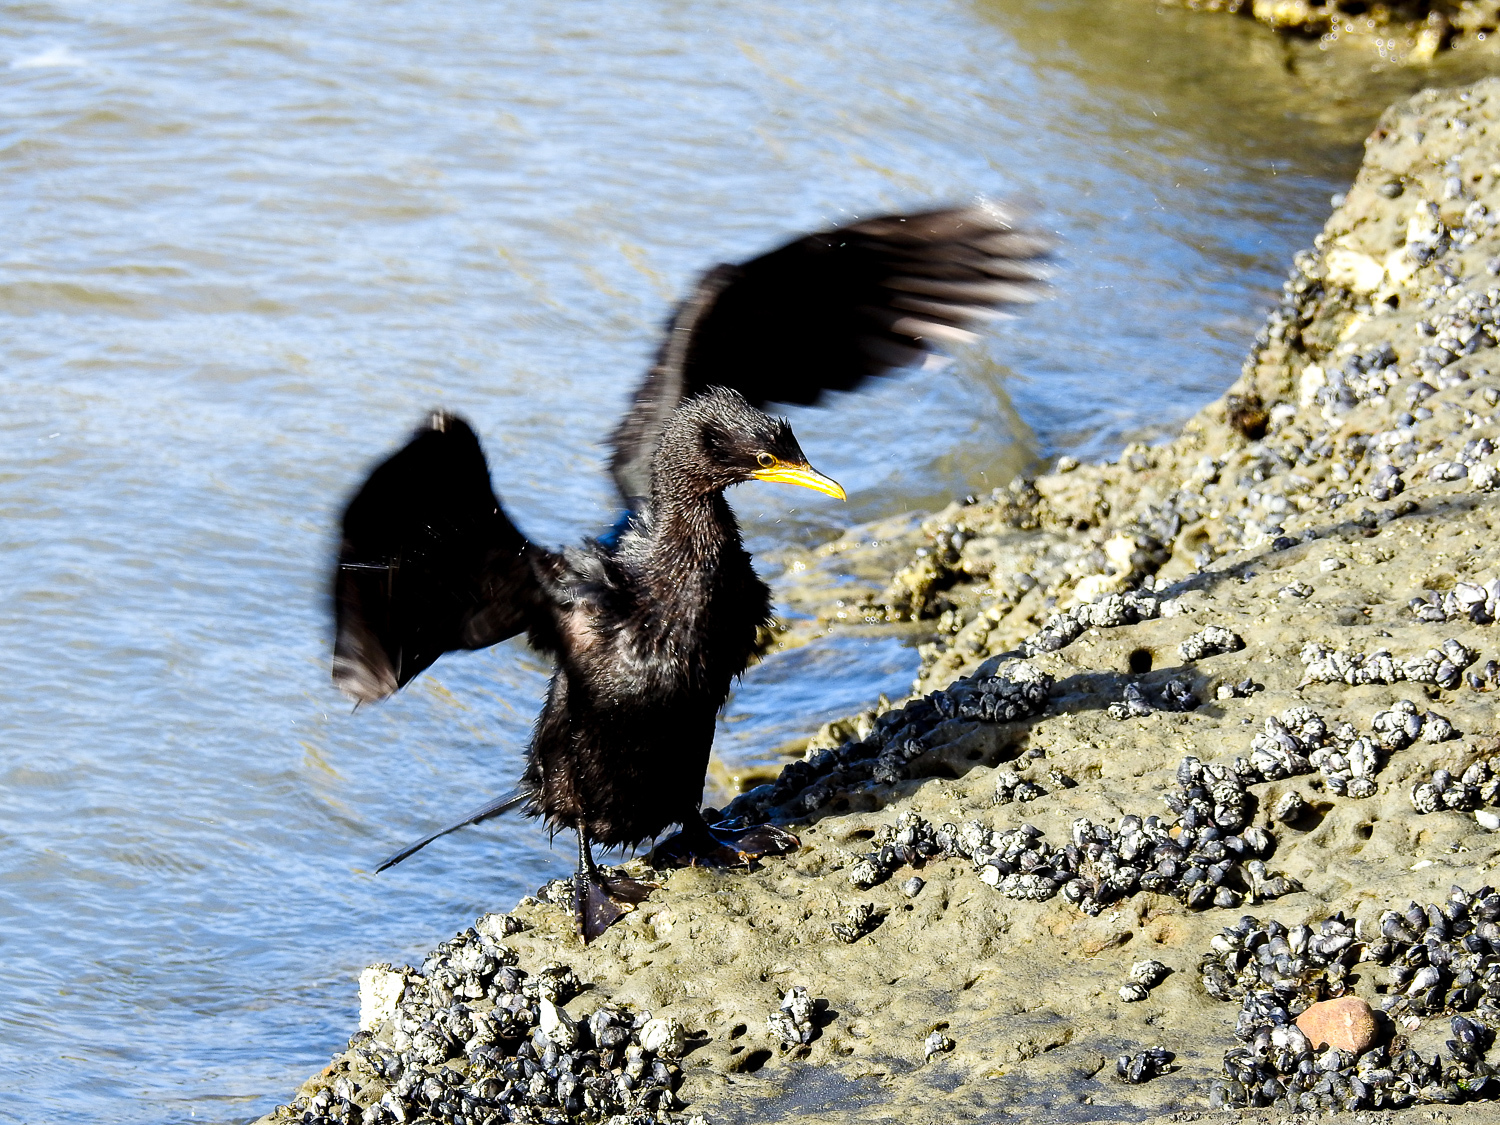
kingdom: Animalia
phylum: Chordata
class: Aves
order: Suliformes
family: Phalacrocoracidae
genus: Microcarbo
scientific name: Microcarbo melanoleucos
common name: Little pied cormorant
